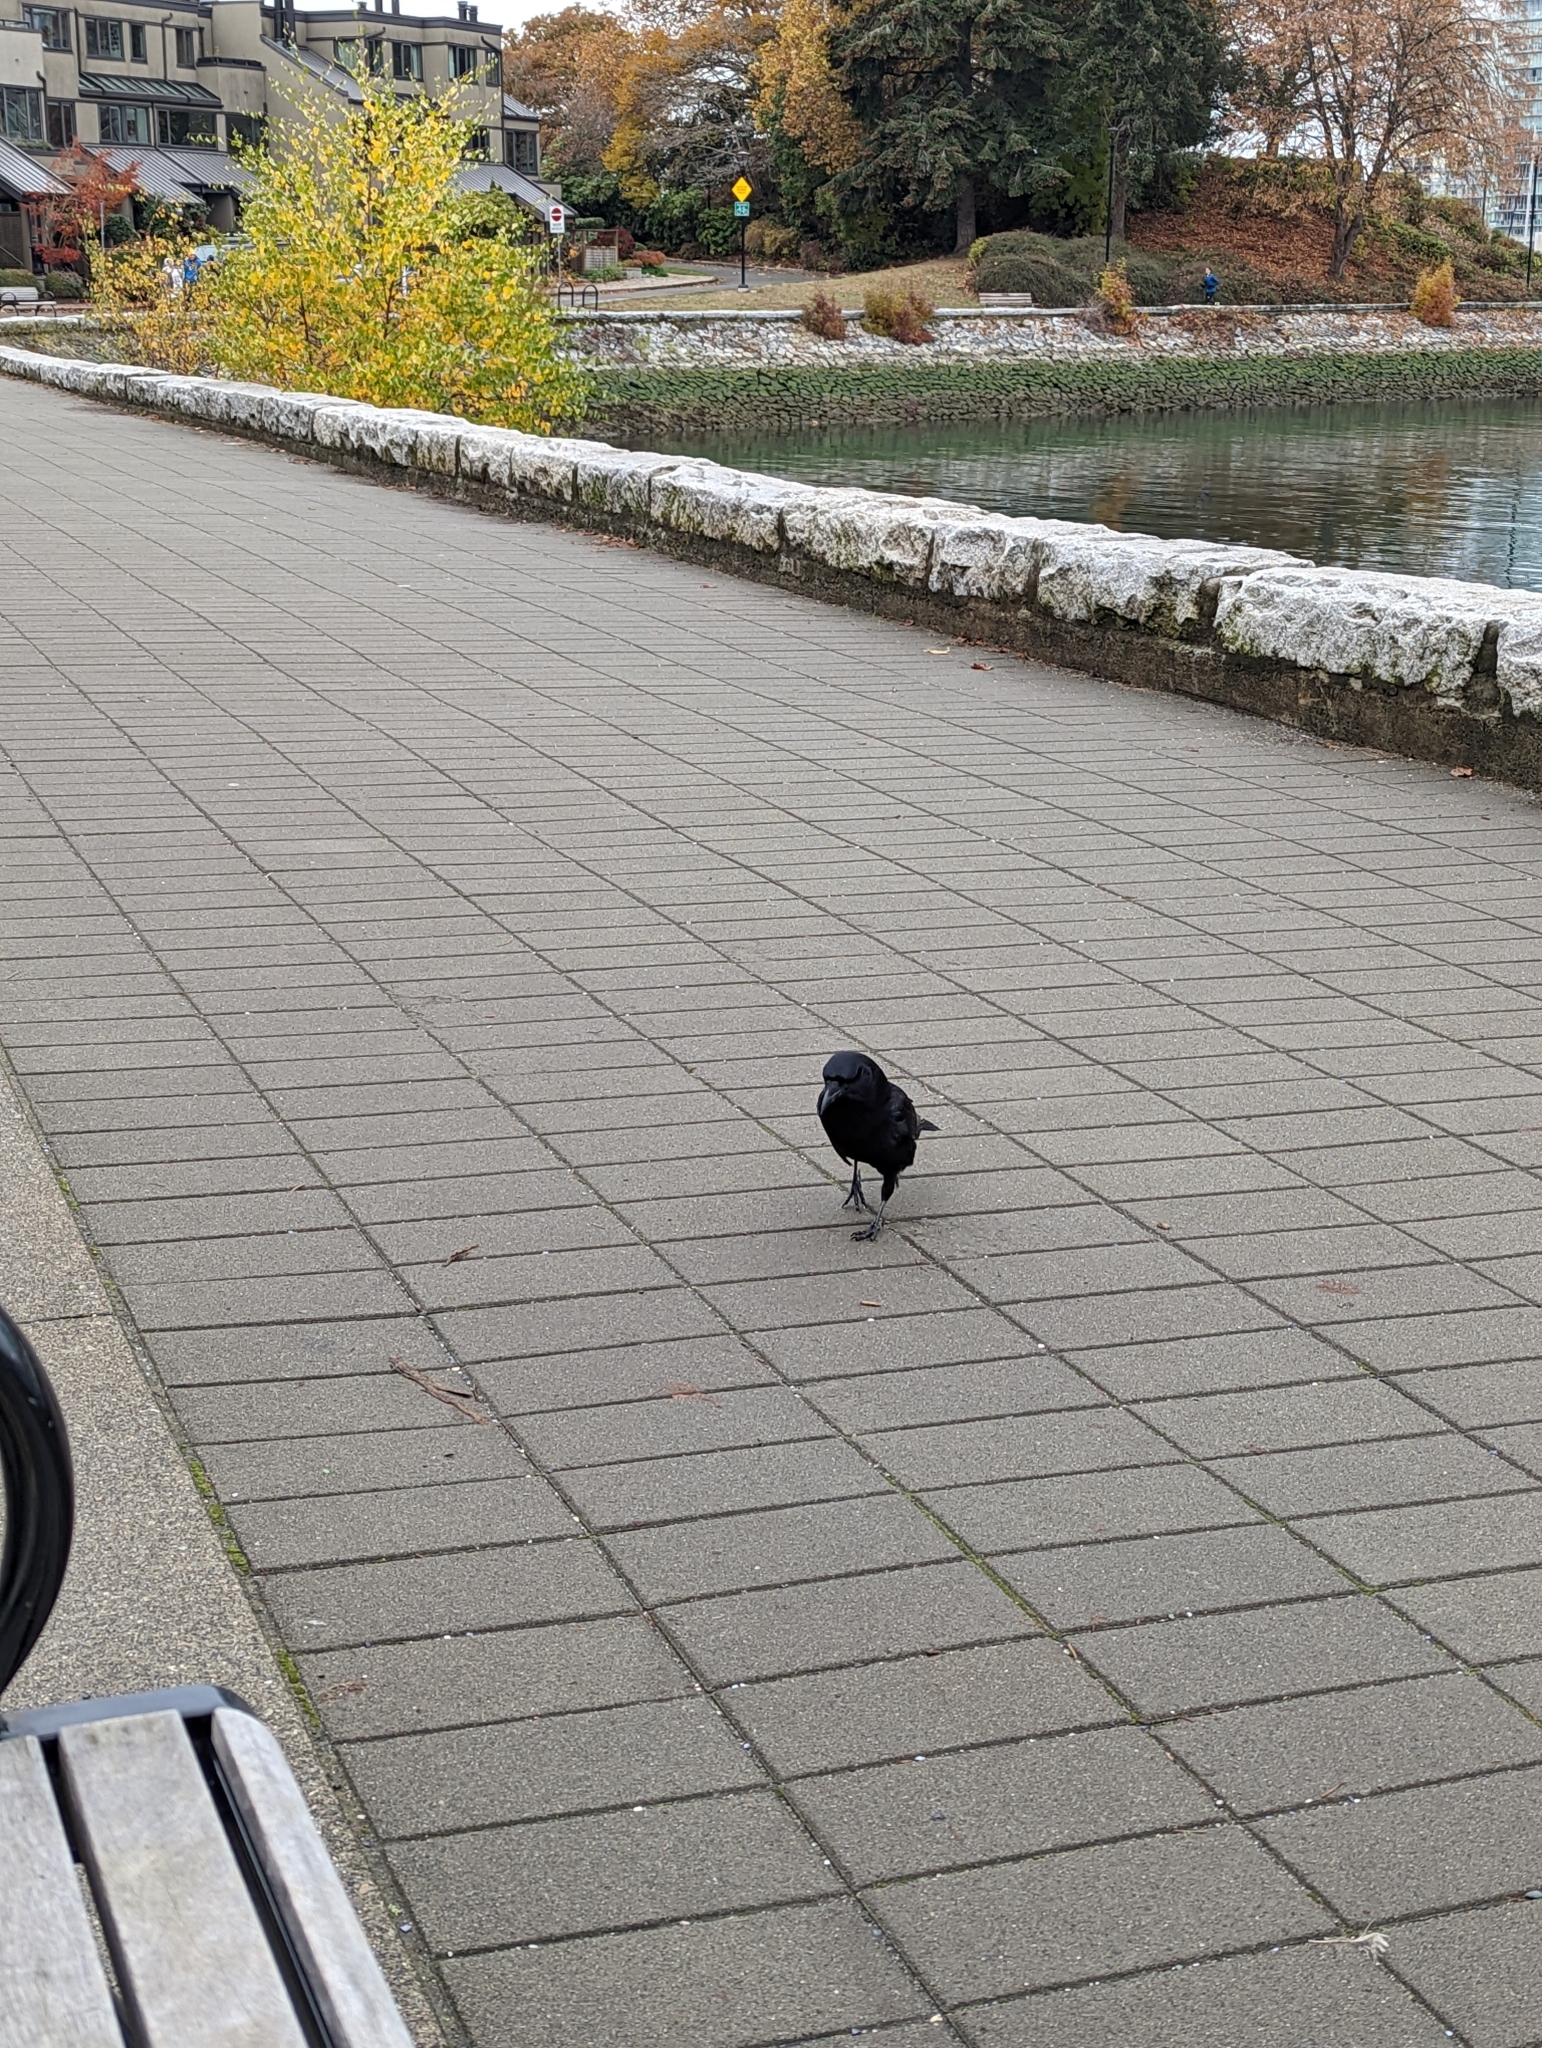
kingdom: Animalia
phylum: Chordata
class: Aves
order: Passeriformes
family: Corvidae
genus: Corvus
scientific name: Corvus brachyrhynchos
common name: American crow
